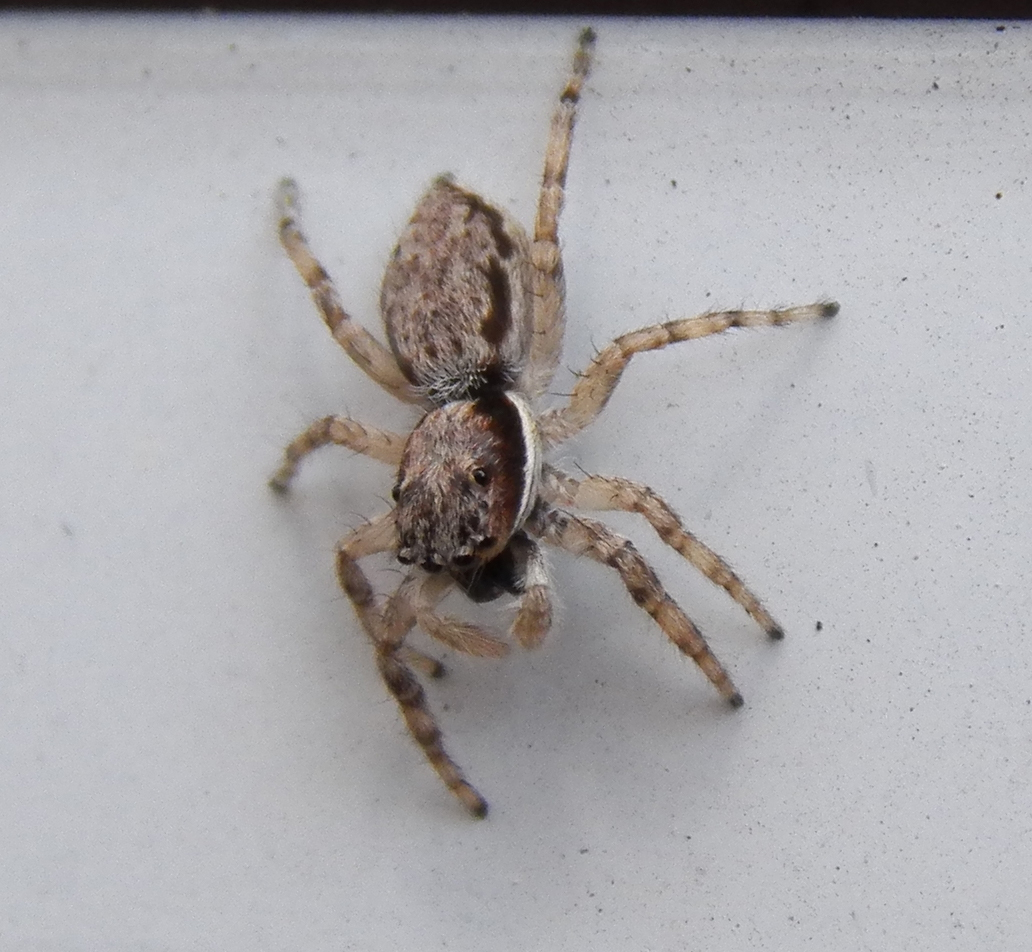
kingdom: Animalia
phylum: Arthropoda
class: Arachnida
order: Araneae
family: Salticidae
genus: Menemerus
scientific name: Menemerus bivittatus
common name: Gray wall jumper
